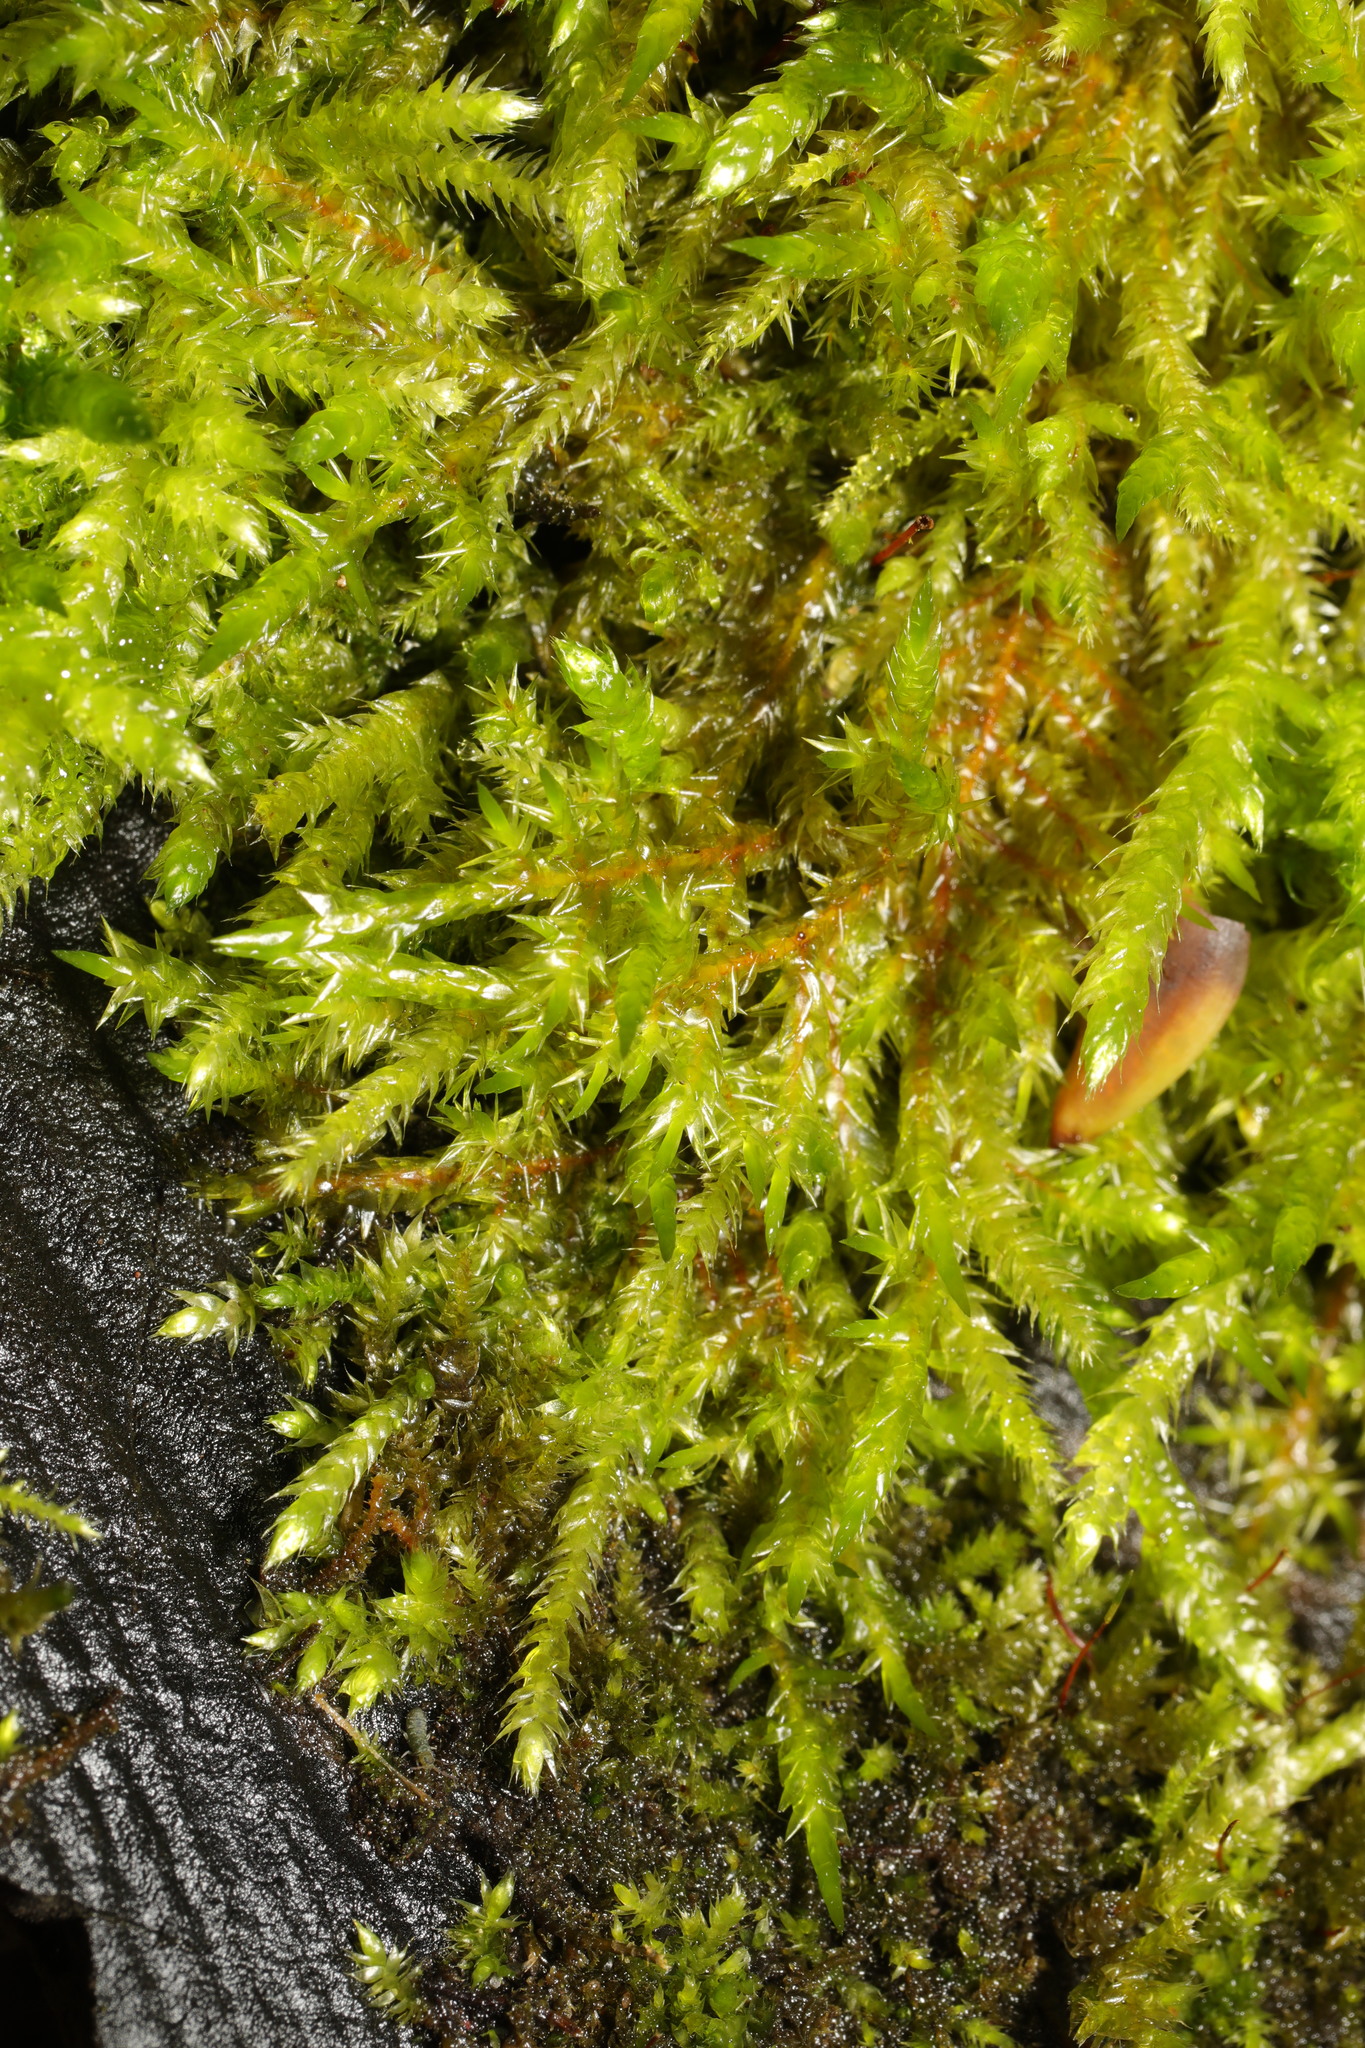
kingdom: Plantae
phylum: Bryophyta
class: Bryopsida
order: Hypnales
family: Brachytheciaceae
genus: Brachythecium
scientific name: Brachythecium rutabulum
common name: Rough-stalked feather-moss
